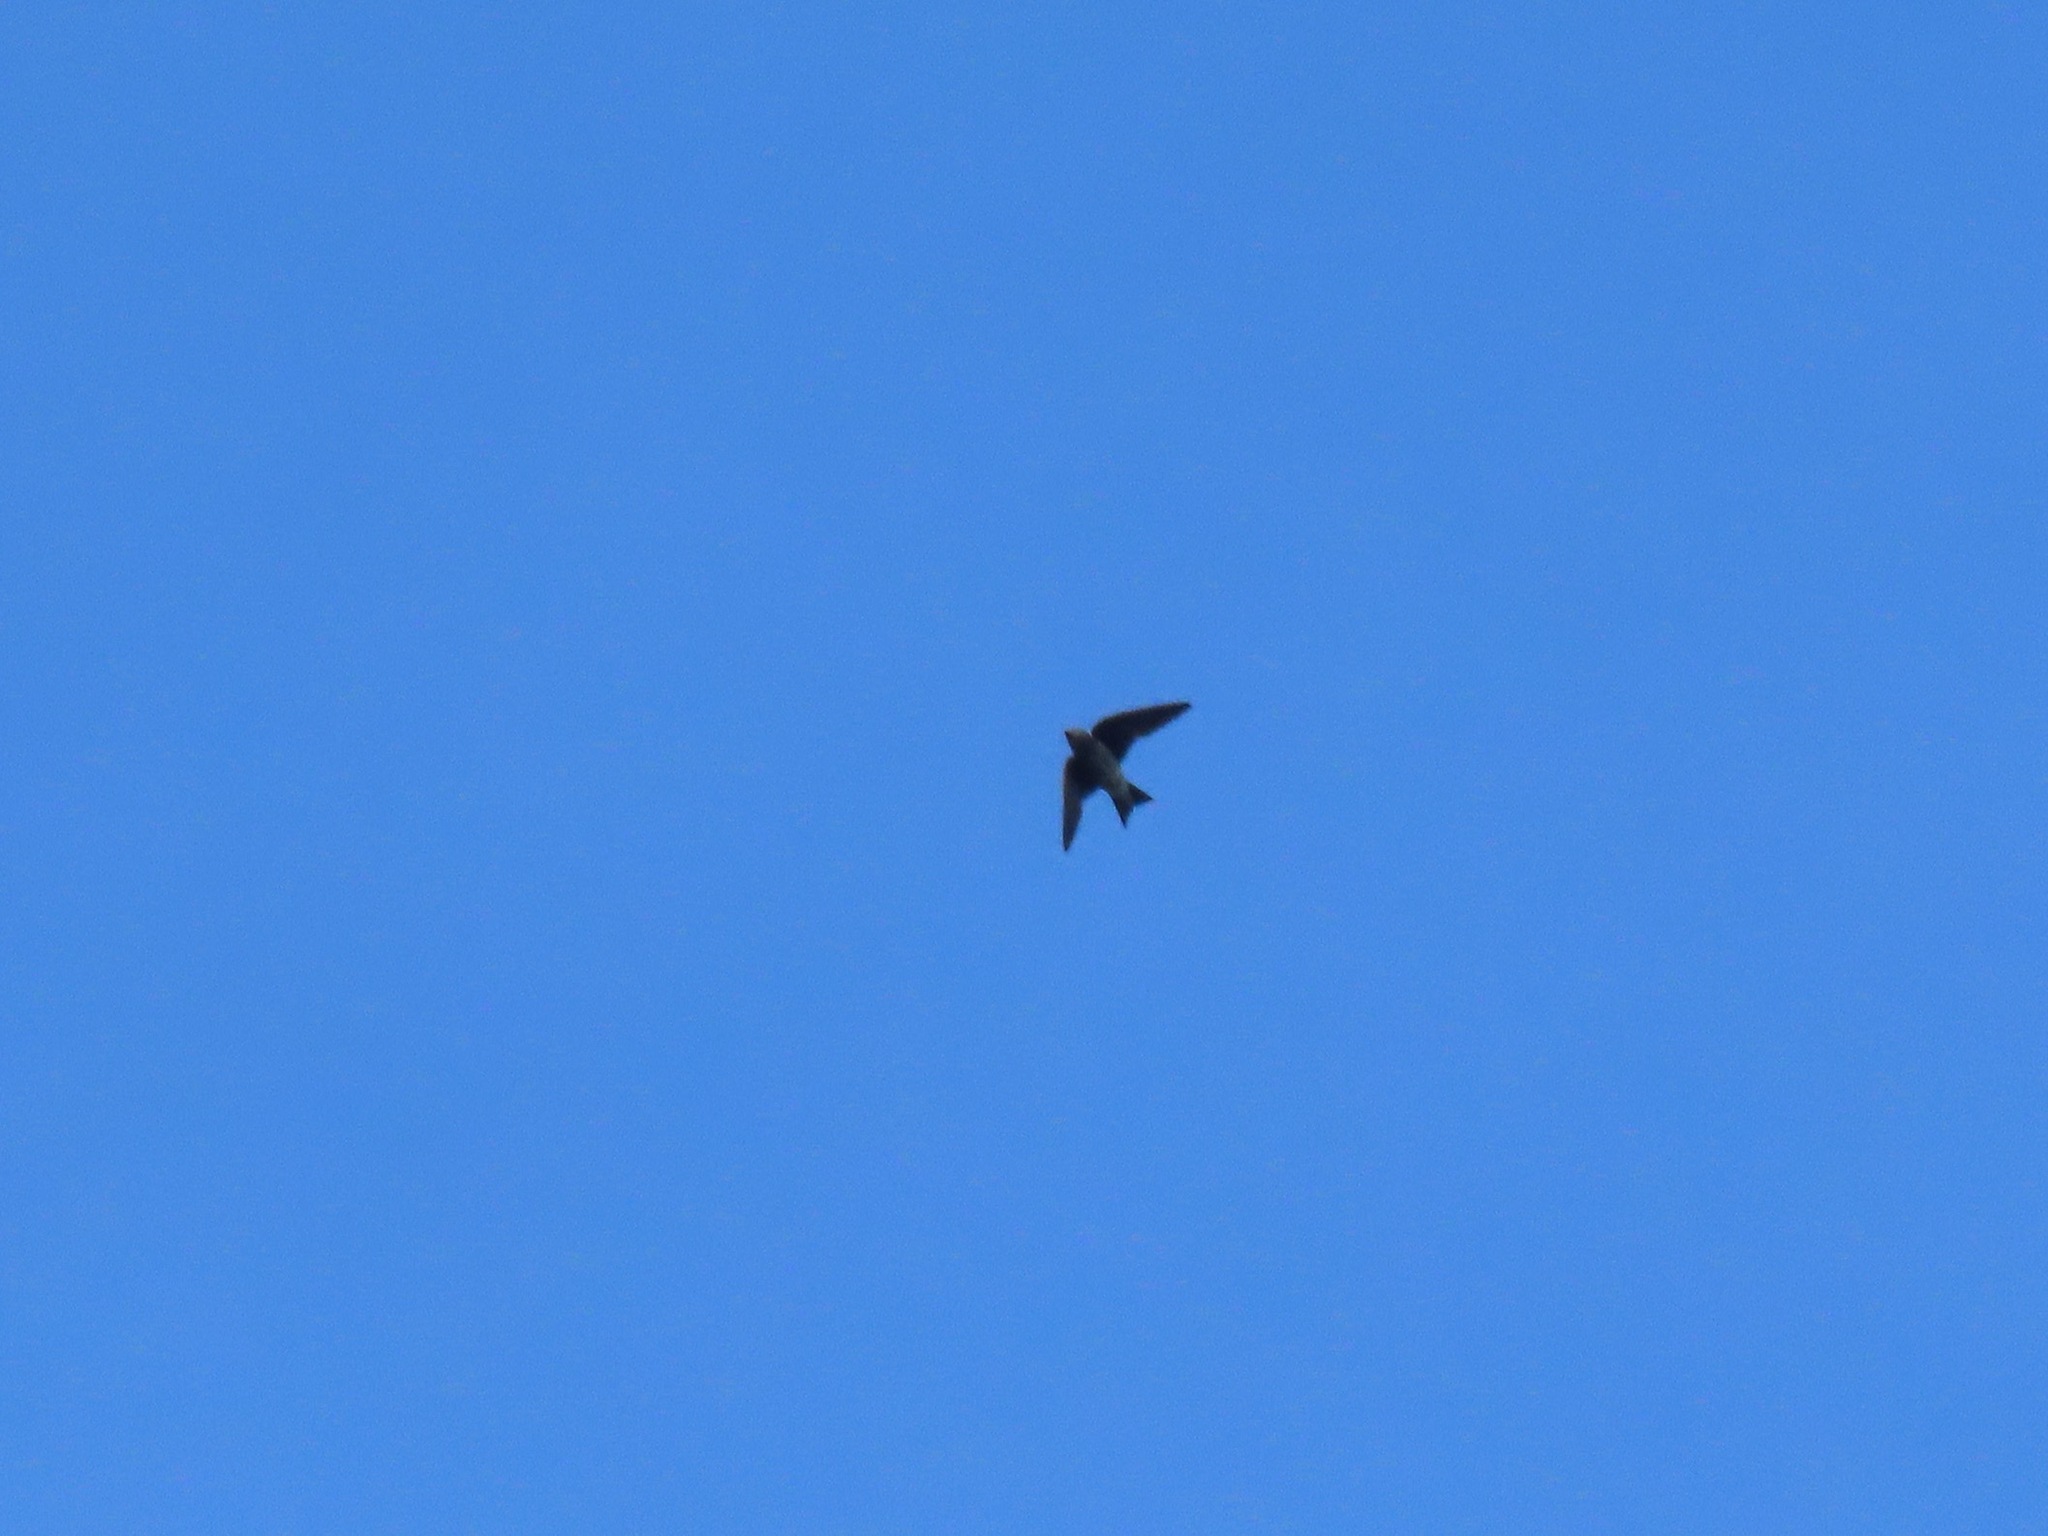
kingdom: Animalia
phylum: Chordata
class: Aves
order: Passeriformes
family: Hirundinidae
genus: Progne
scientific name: Progne subis
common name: Purple martin
